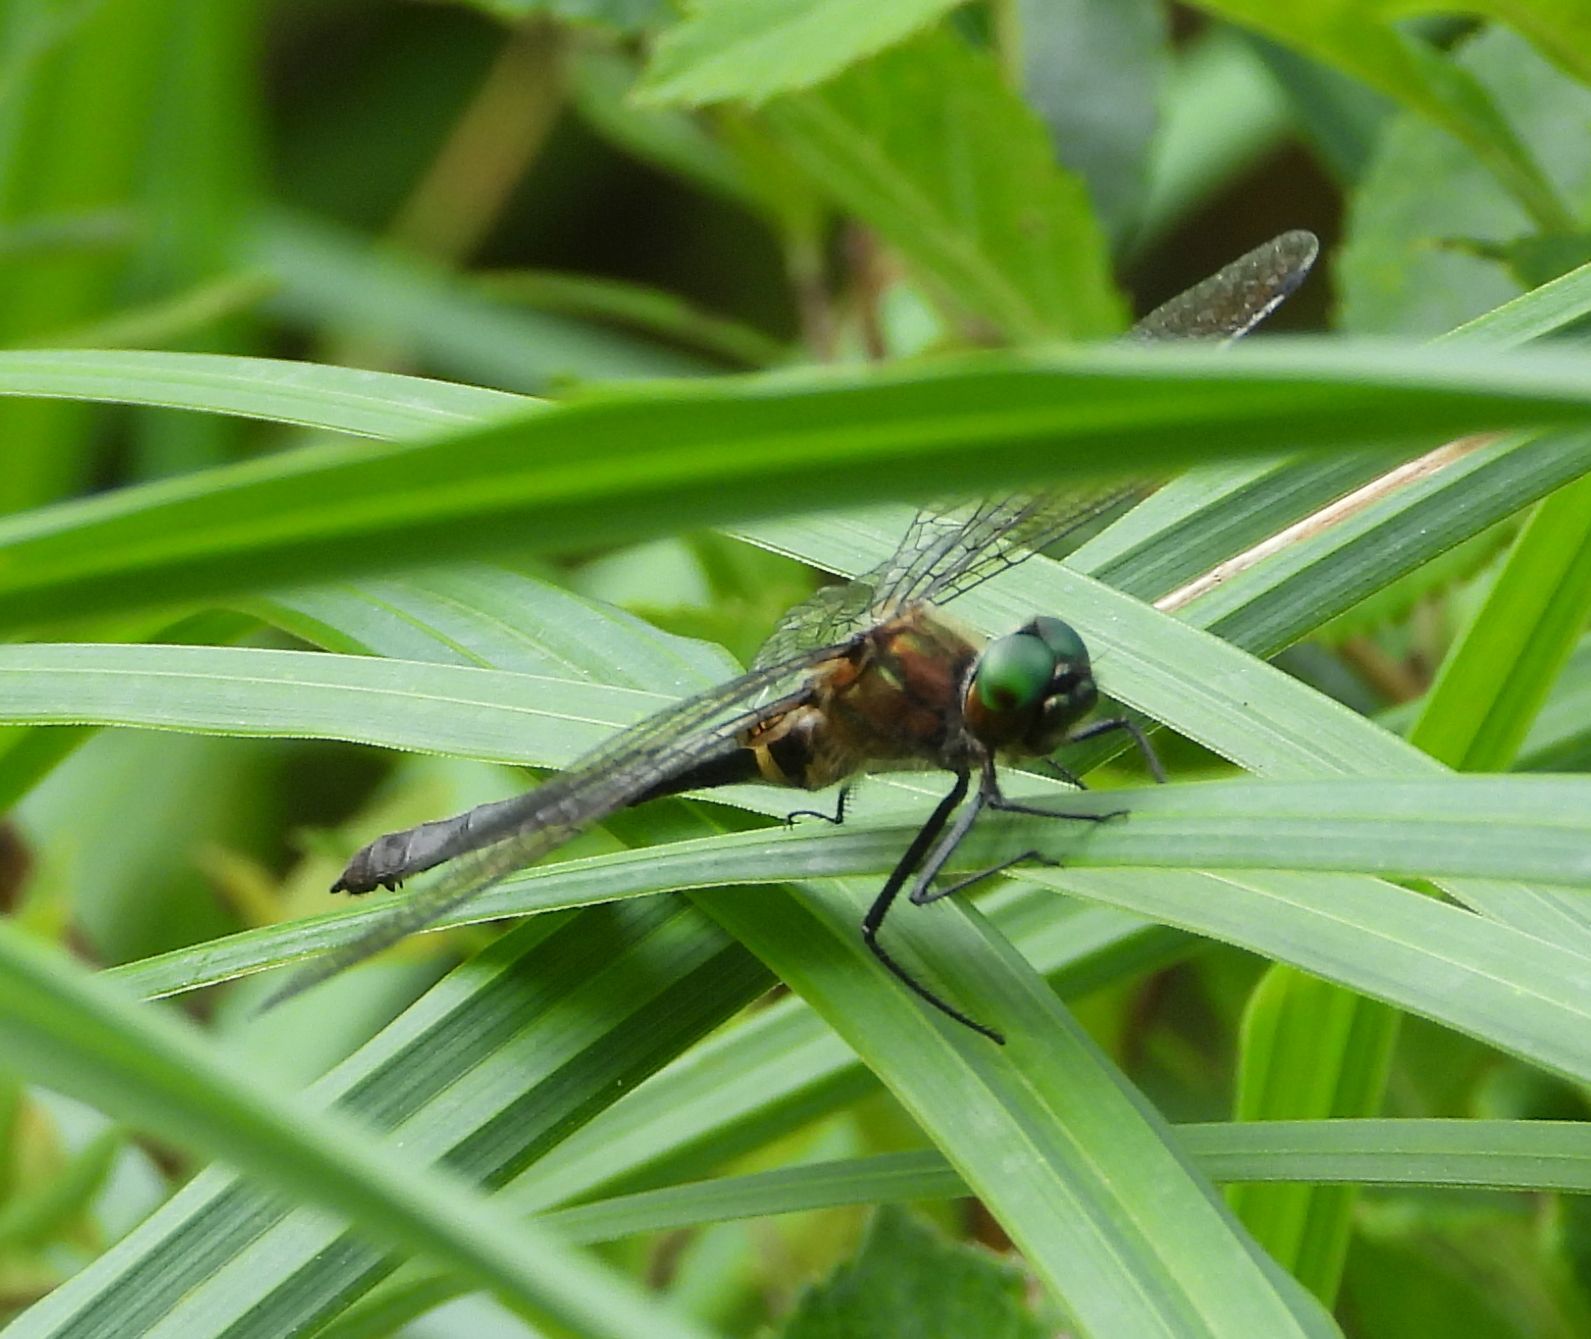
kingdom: Animalia
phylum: Arthropoda
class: Insecta
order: Odonata
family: Corduliidae
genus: Dorocordulia
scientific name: Dorocordulia libera
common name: Racket-tailed emerald
